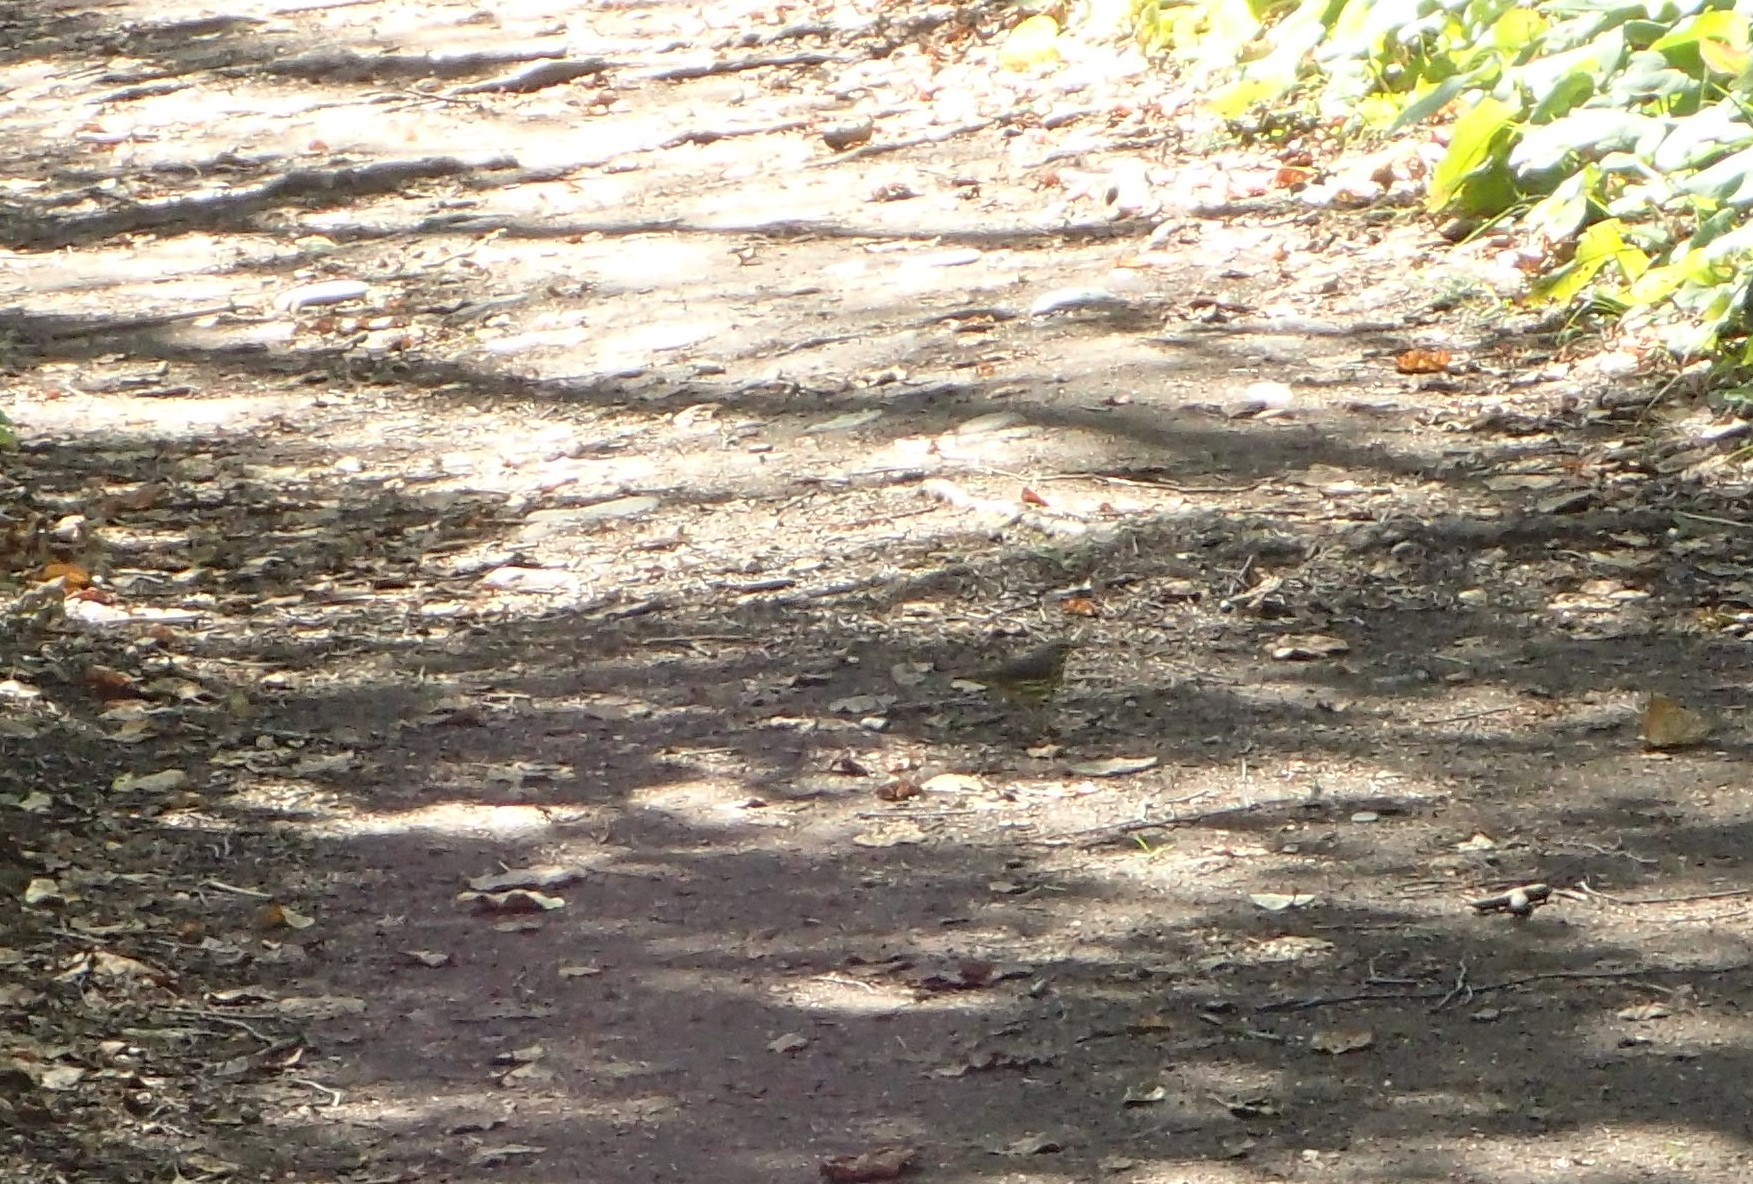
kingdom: Animalia
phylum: Chordata
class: Aves
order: Passeriformes
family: Parulidae
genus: Parkesia
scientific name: Parkesia noveboracensis
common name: Northern waterthrush
